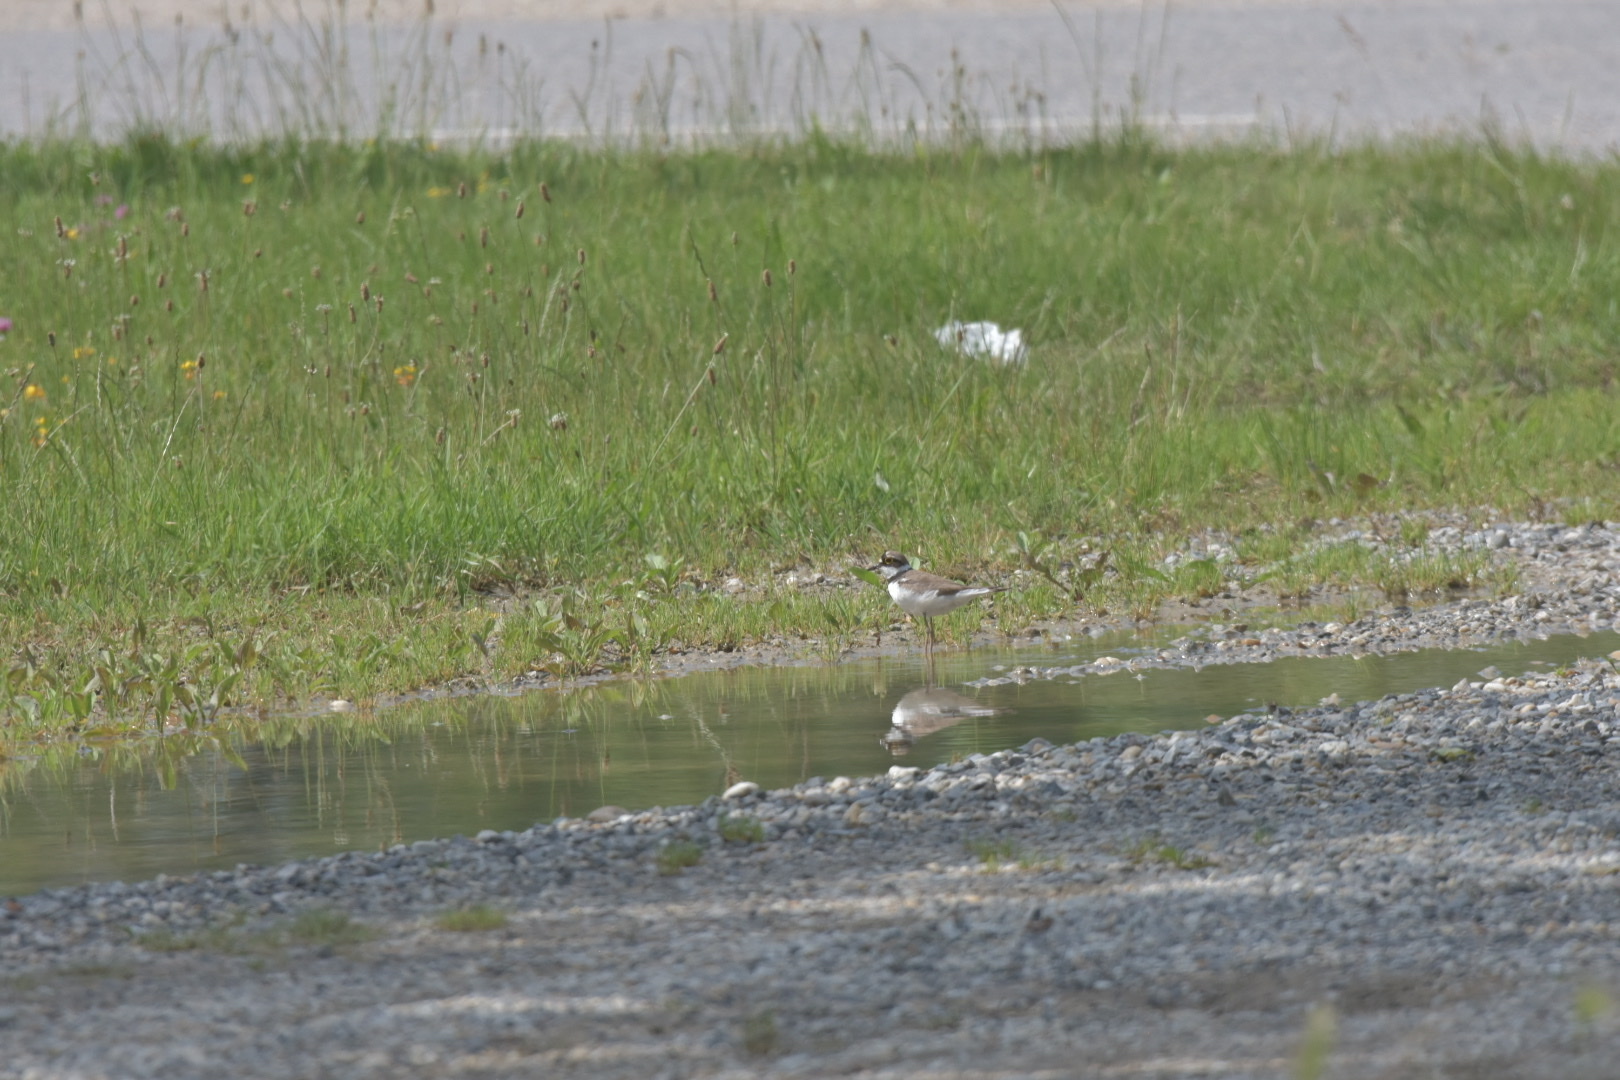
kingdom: Animalia
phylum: Chordata
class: Aves
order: Charadriiformes
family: Charadriidae
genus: Charadrius
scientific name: Charadrius dubius
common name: Little ringed plover
